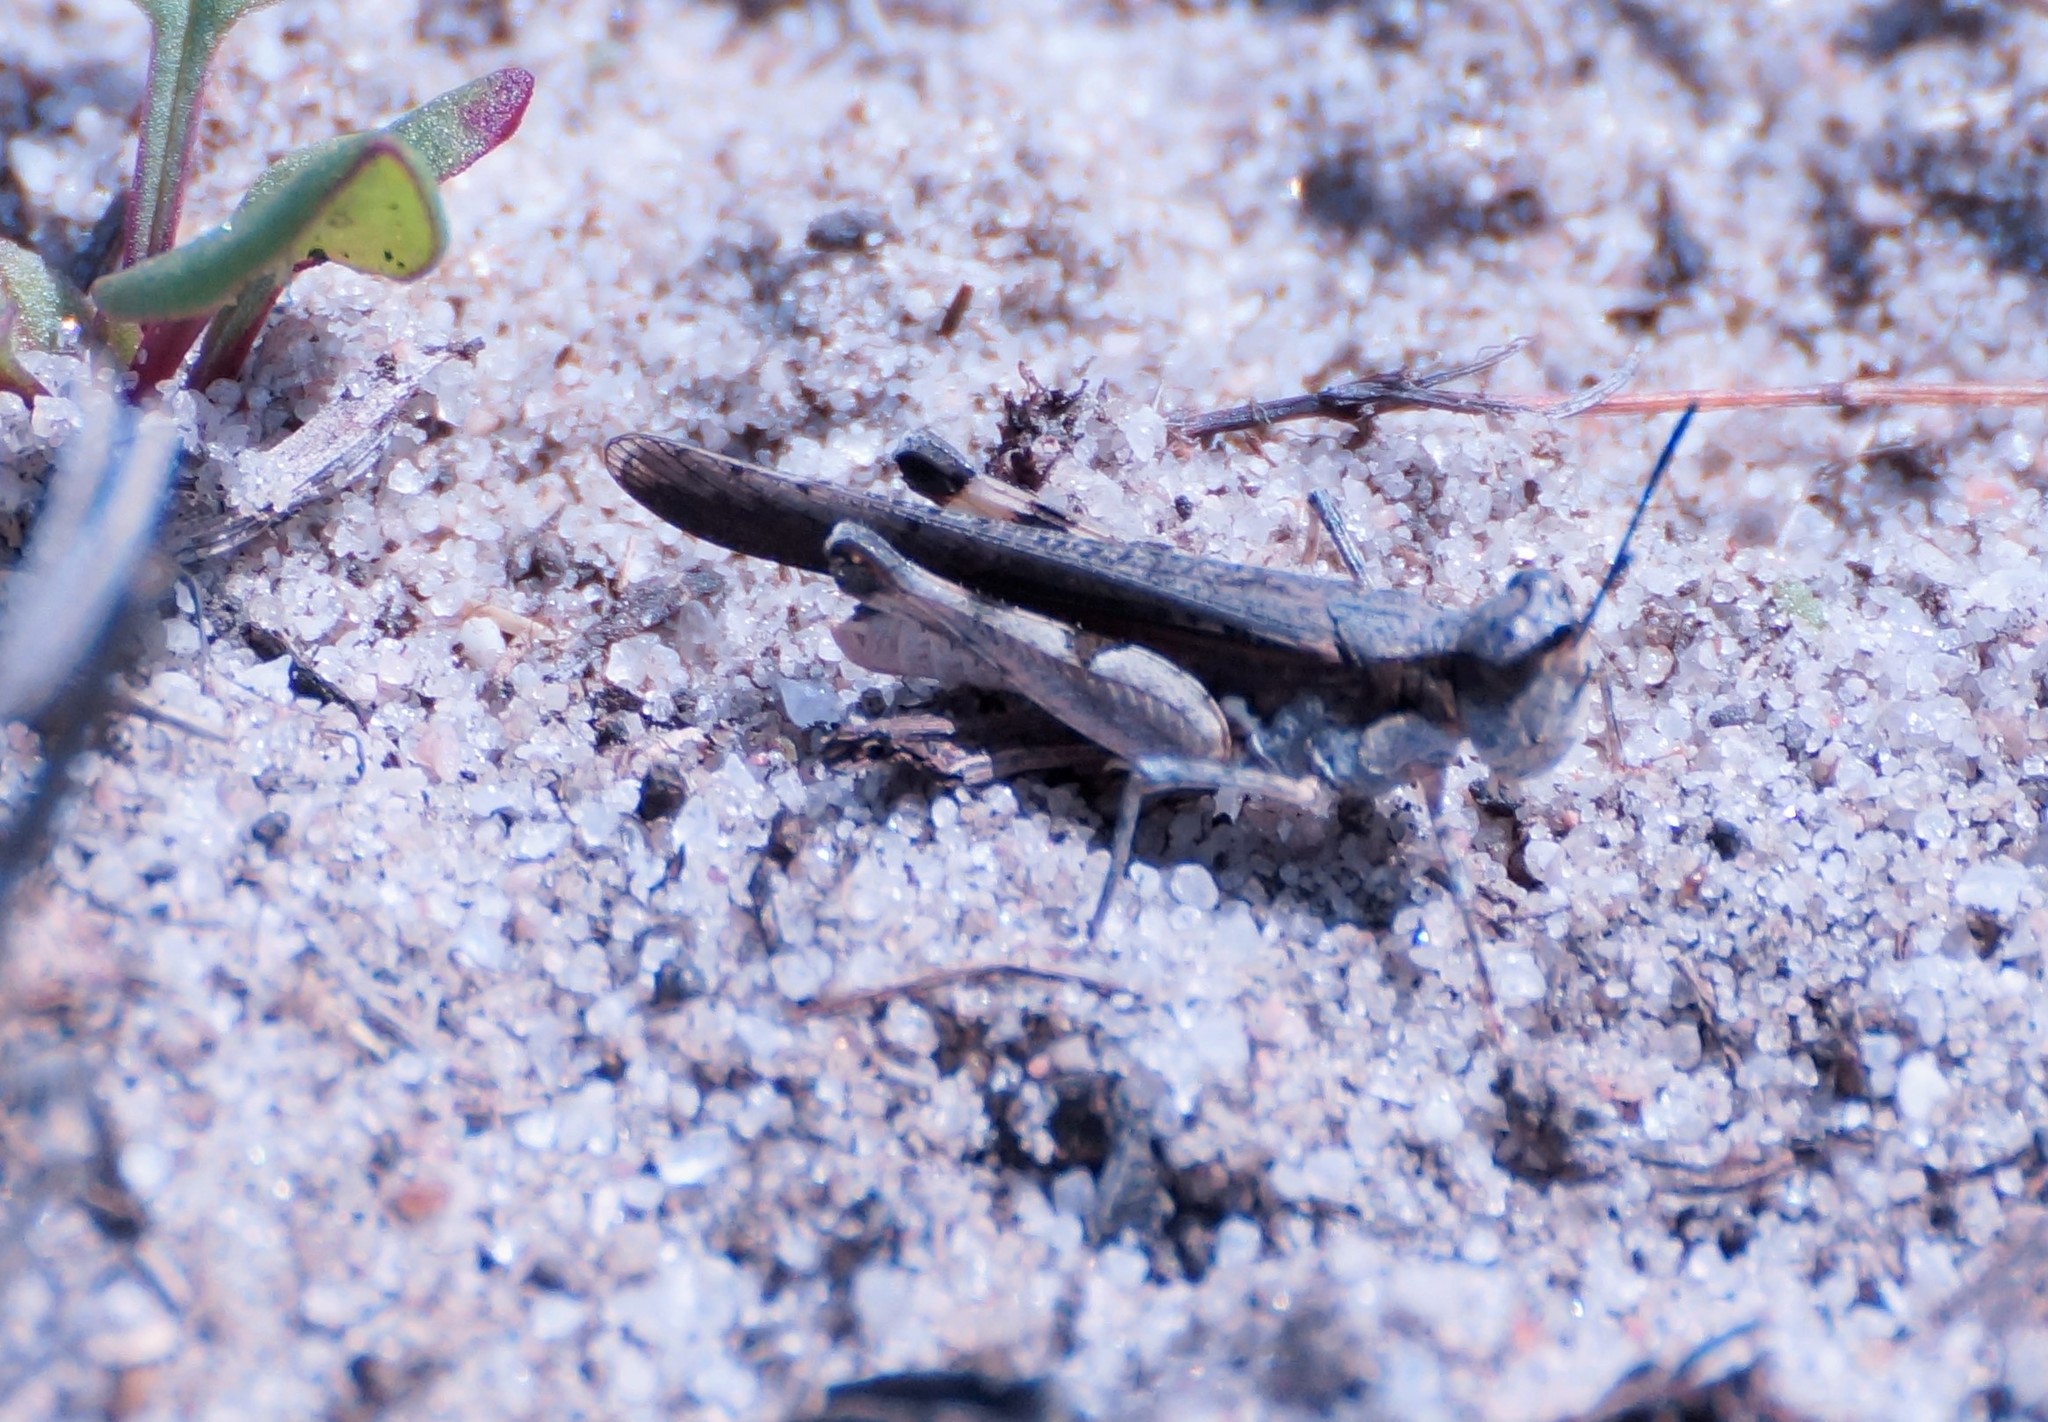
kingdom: Animalia
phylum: Arthropoda
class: Insecta
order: Orthoptera
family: Acrididae
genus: Pycnostictus
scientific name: Pycnostictus seriatus
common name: Common bandwing
